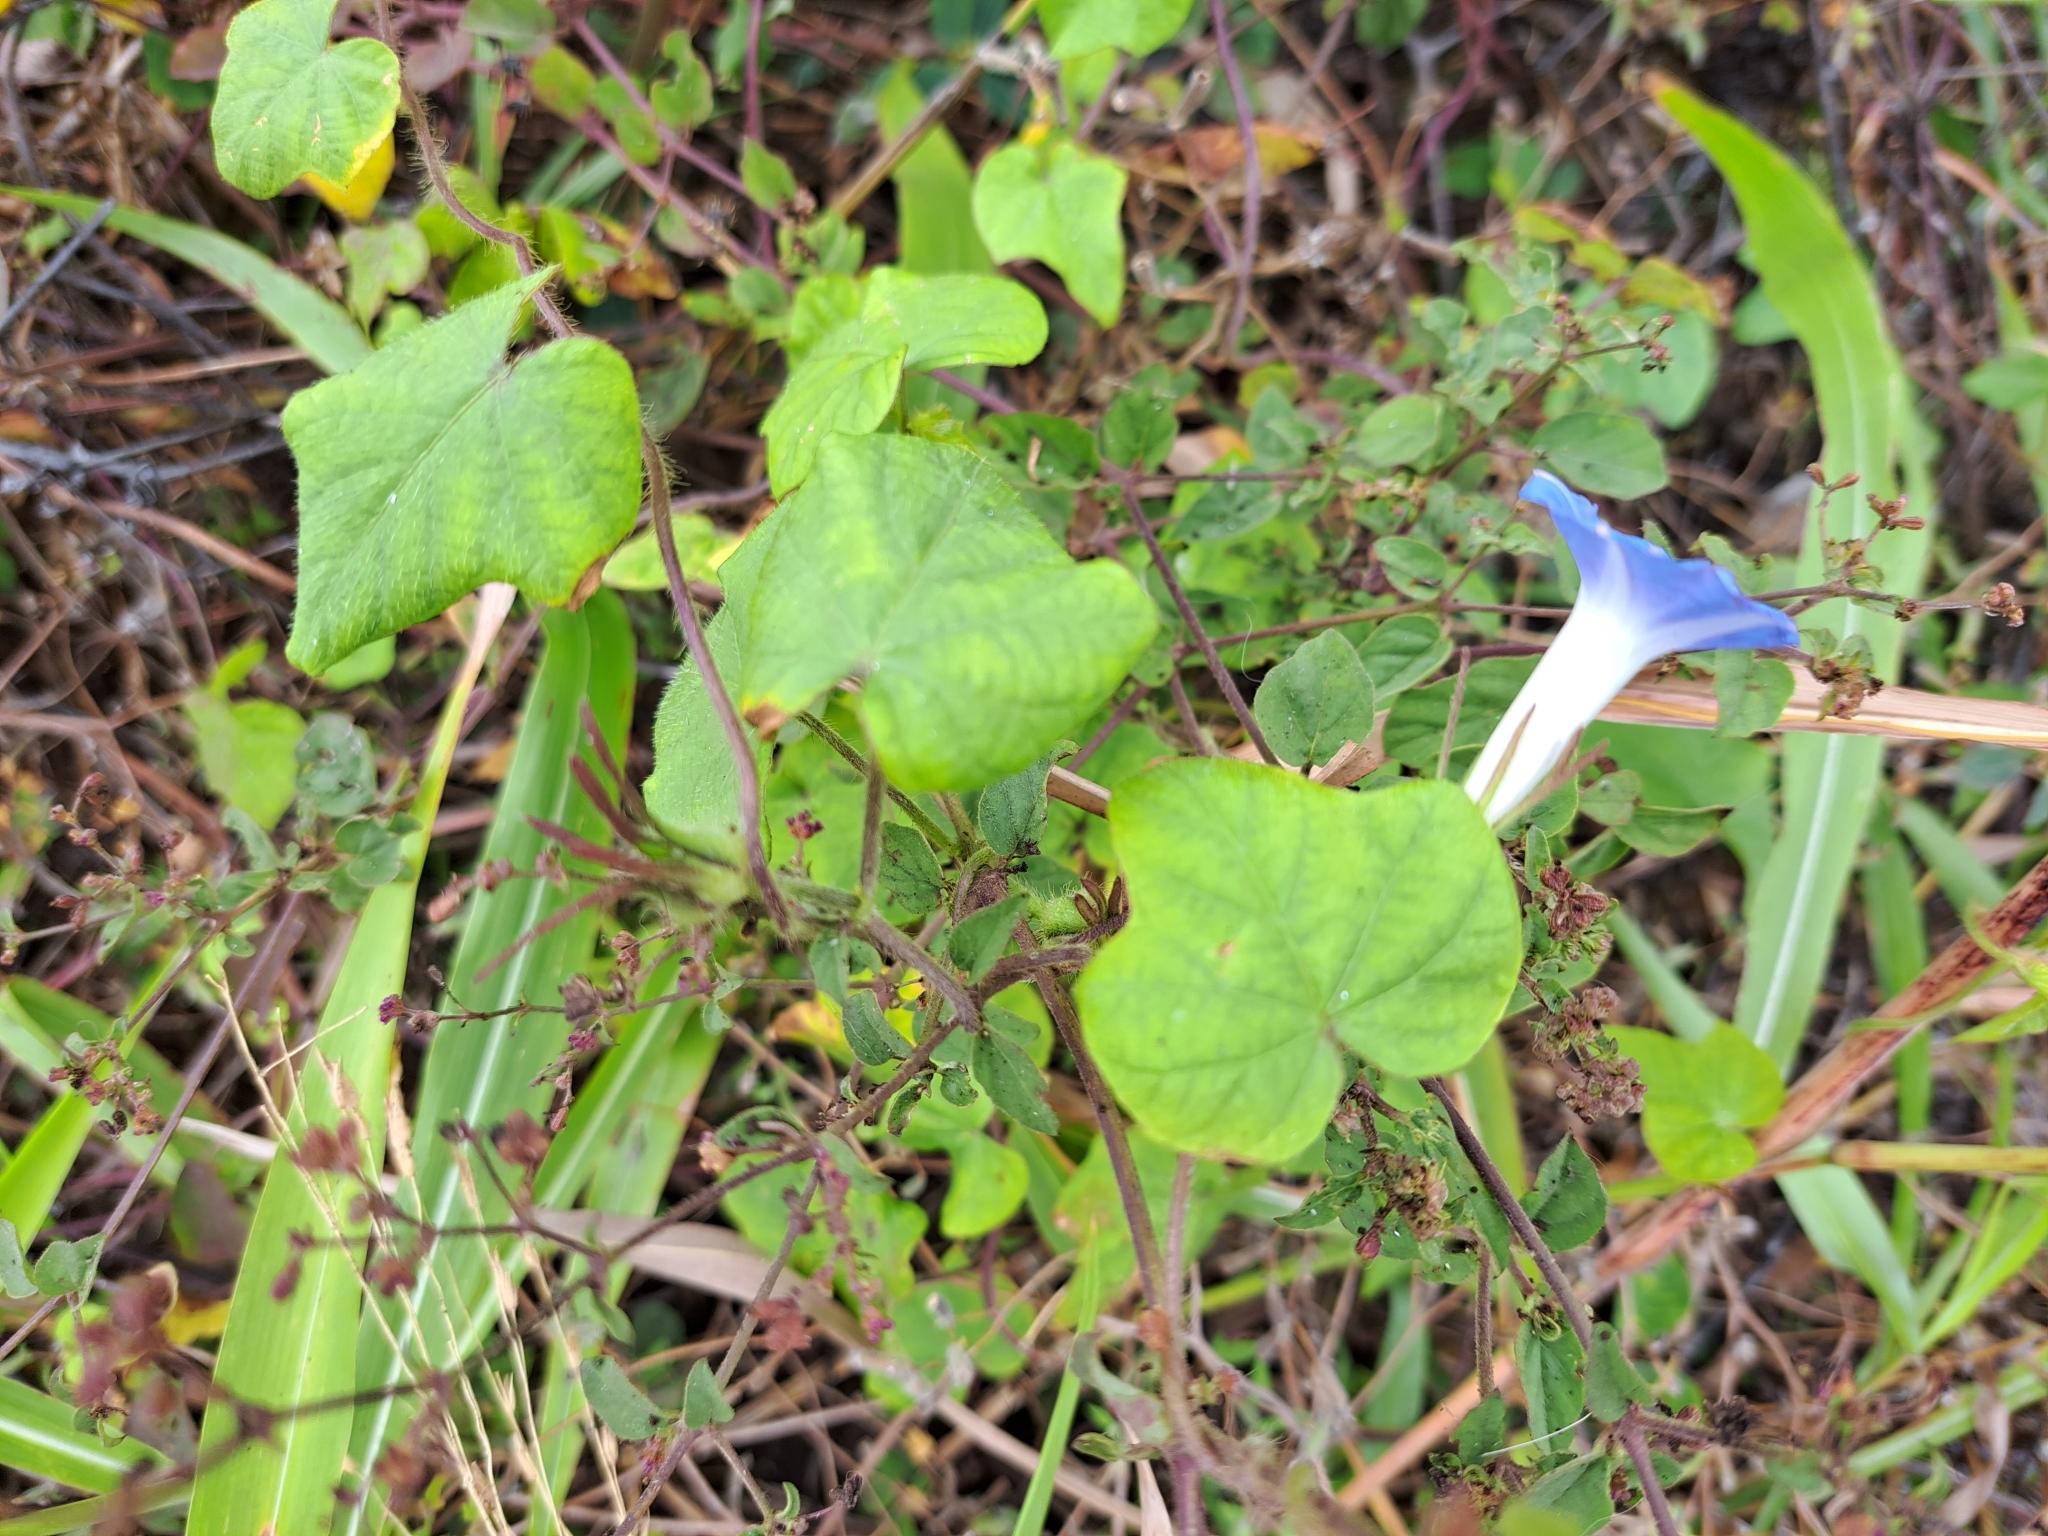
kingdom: Plantae
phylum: Tracheophyta
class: Magnoliopsida
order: Solanales
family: Convolvulaceae
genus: Ipomoea
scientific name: Ipomoea nil
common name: Japanese morning-glory
